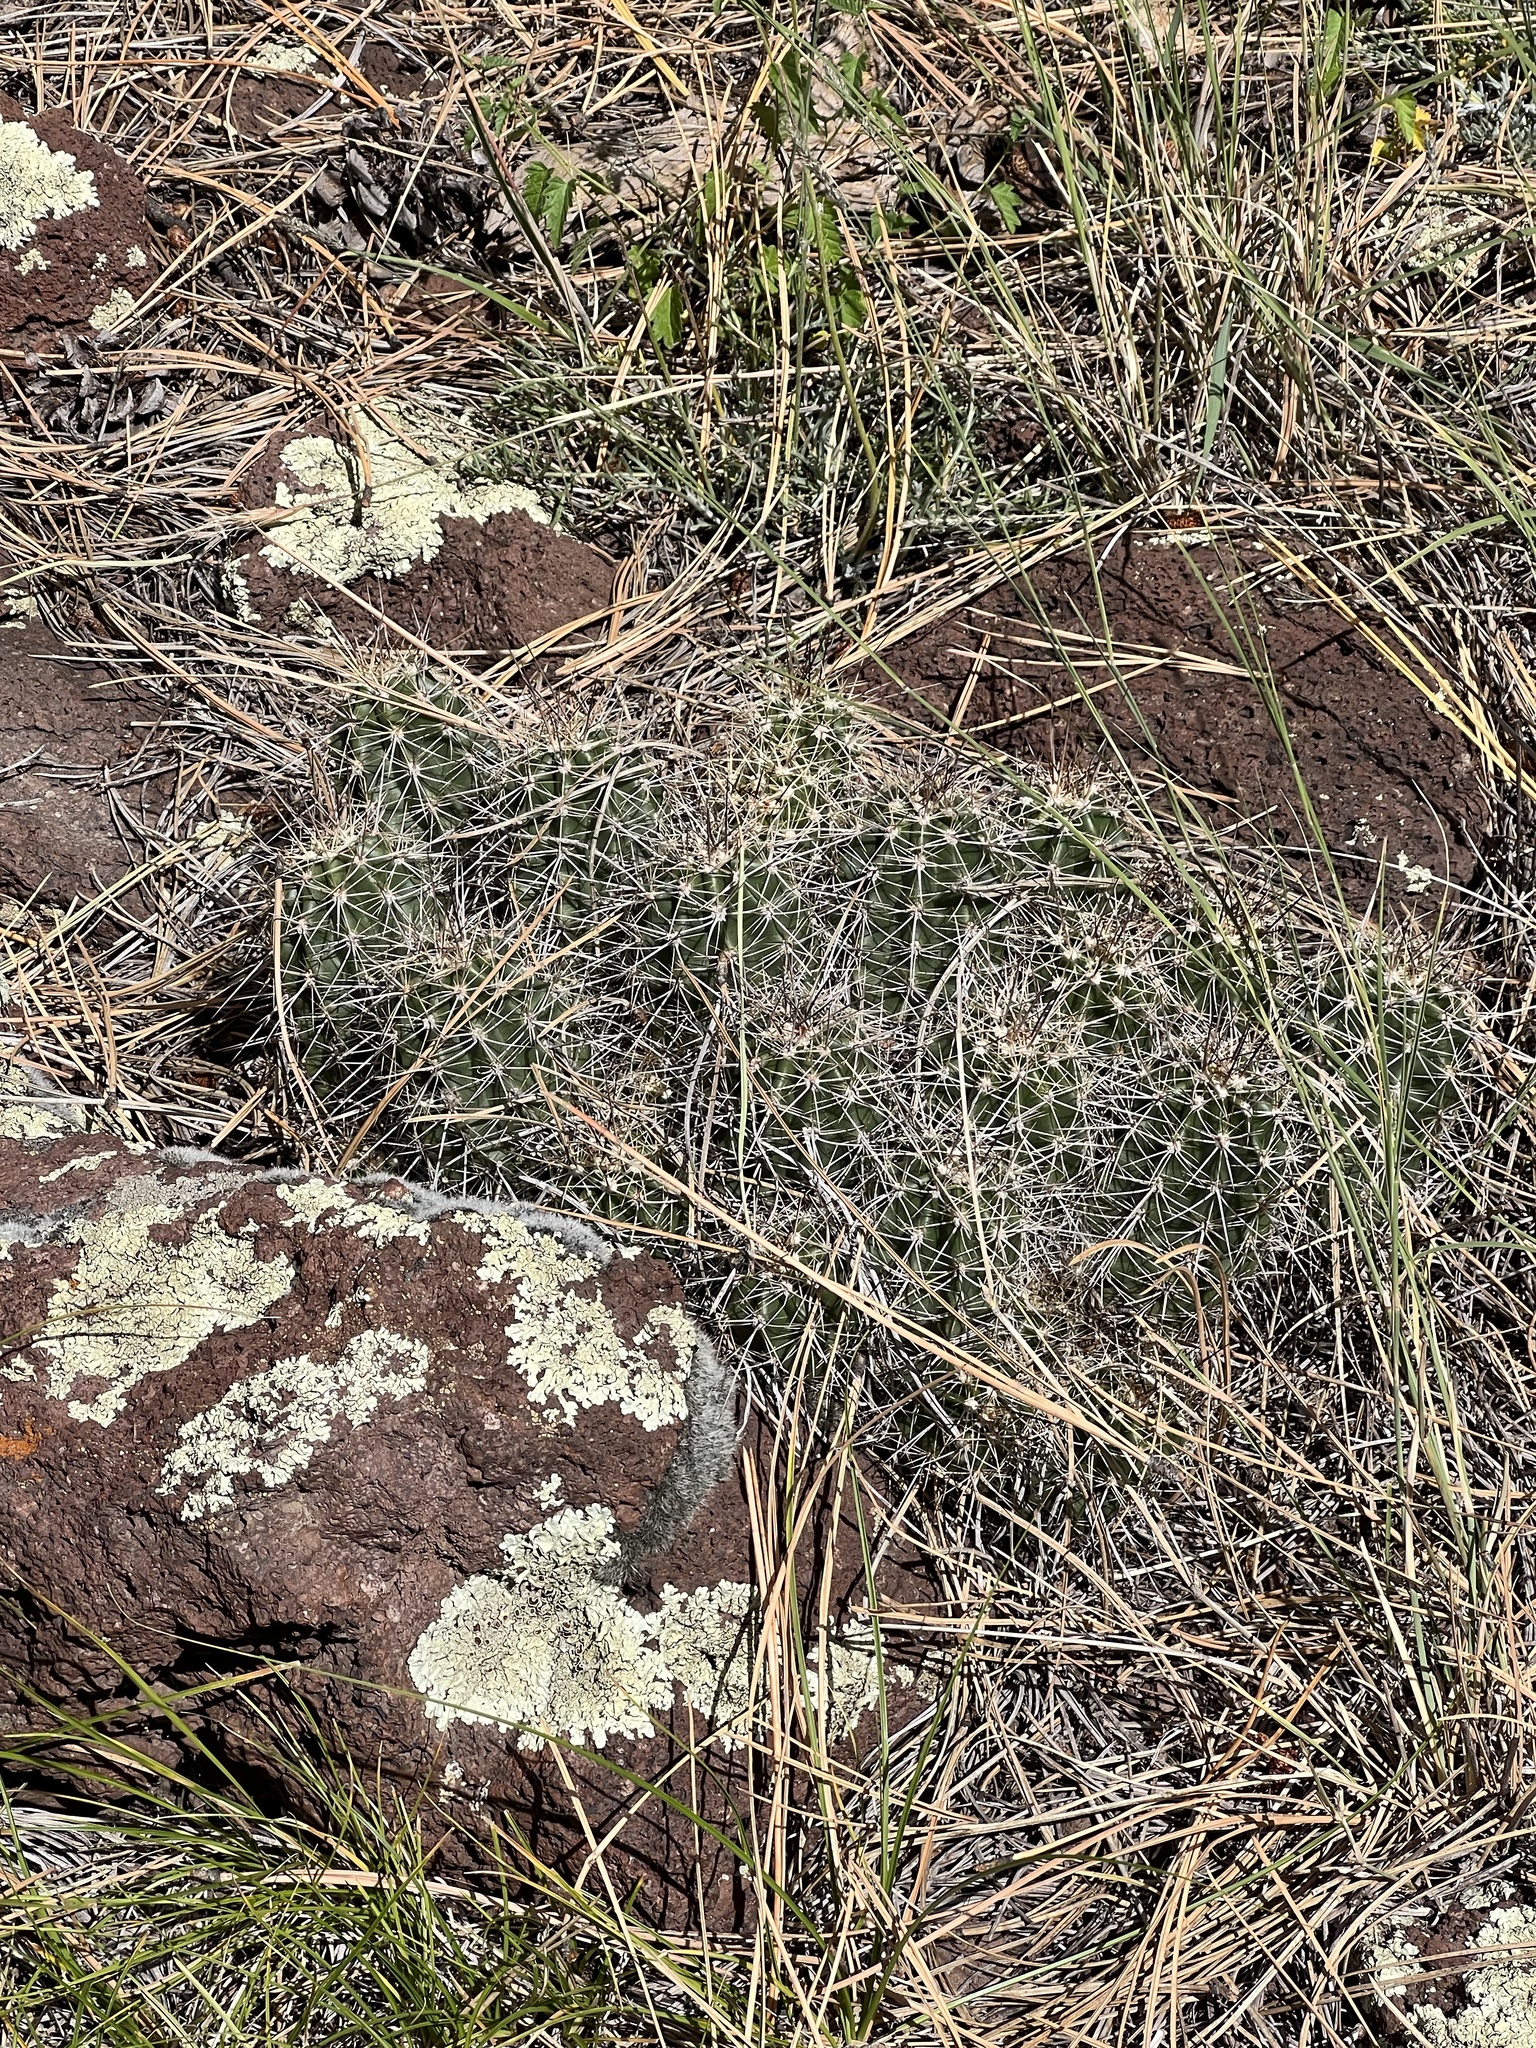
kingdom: Plantae
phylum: Tracheophyta
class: Magnoliopsida
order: Caryophyllales
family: Cactaceae
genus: Echinocereus
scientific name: Echinocereus bakeri
